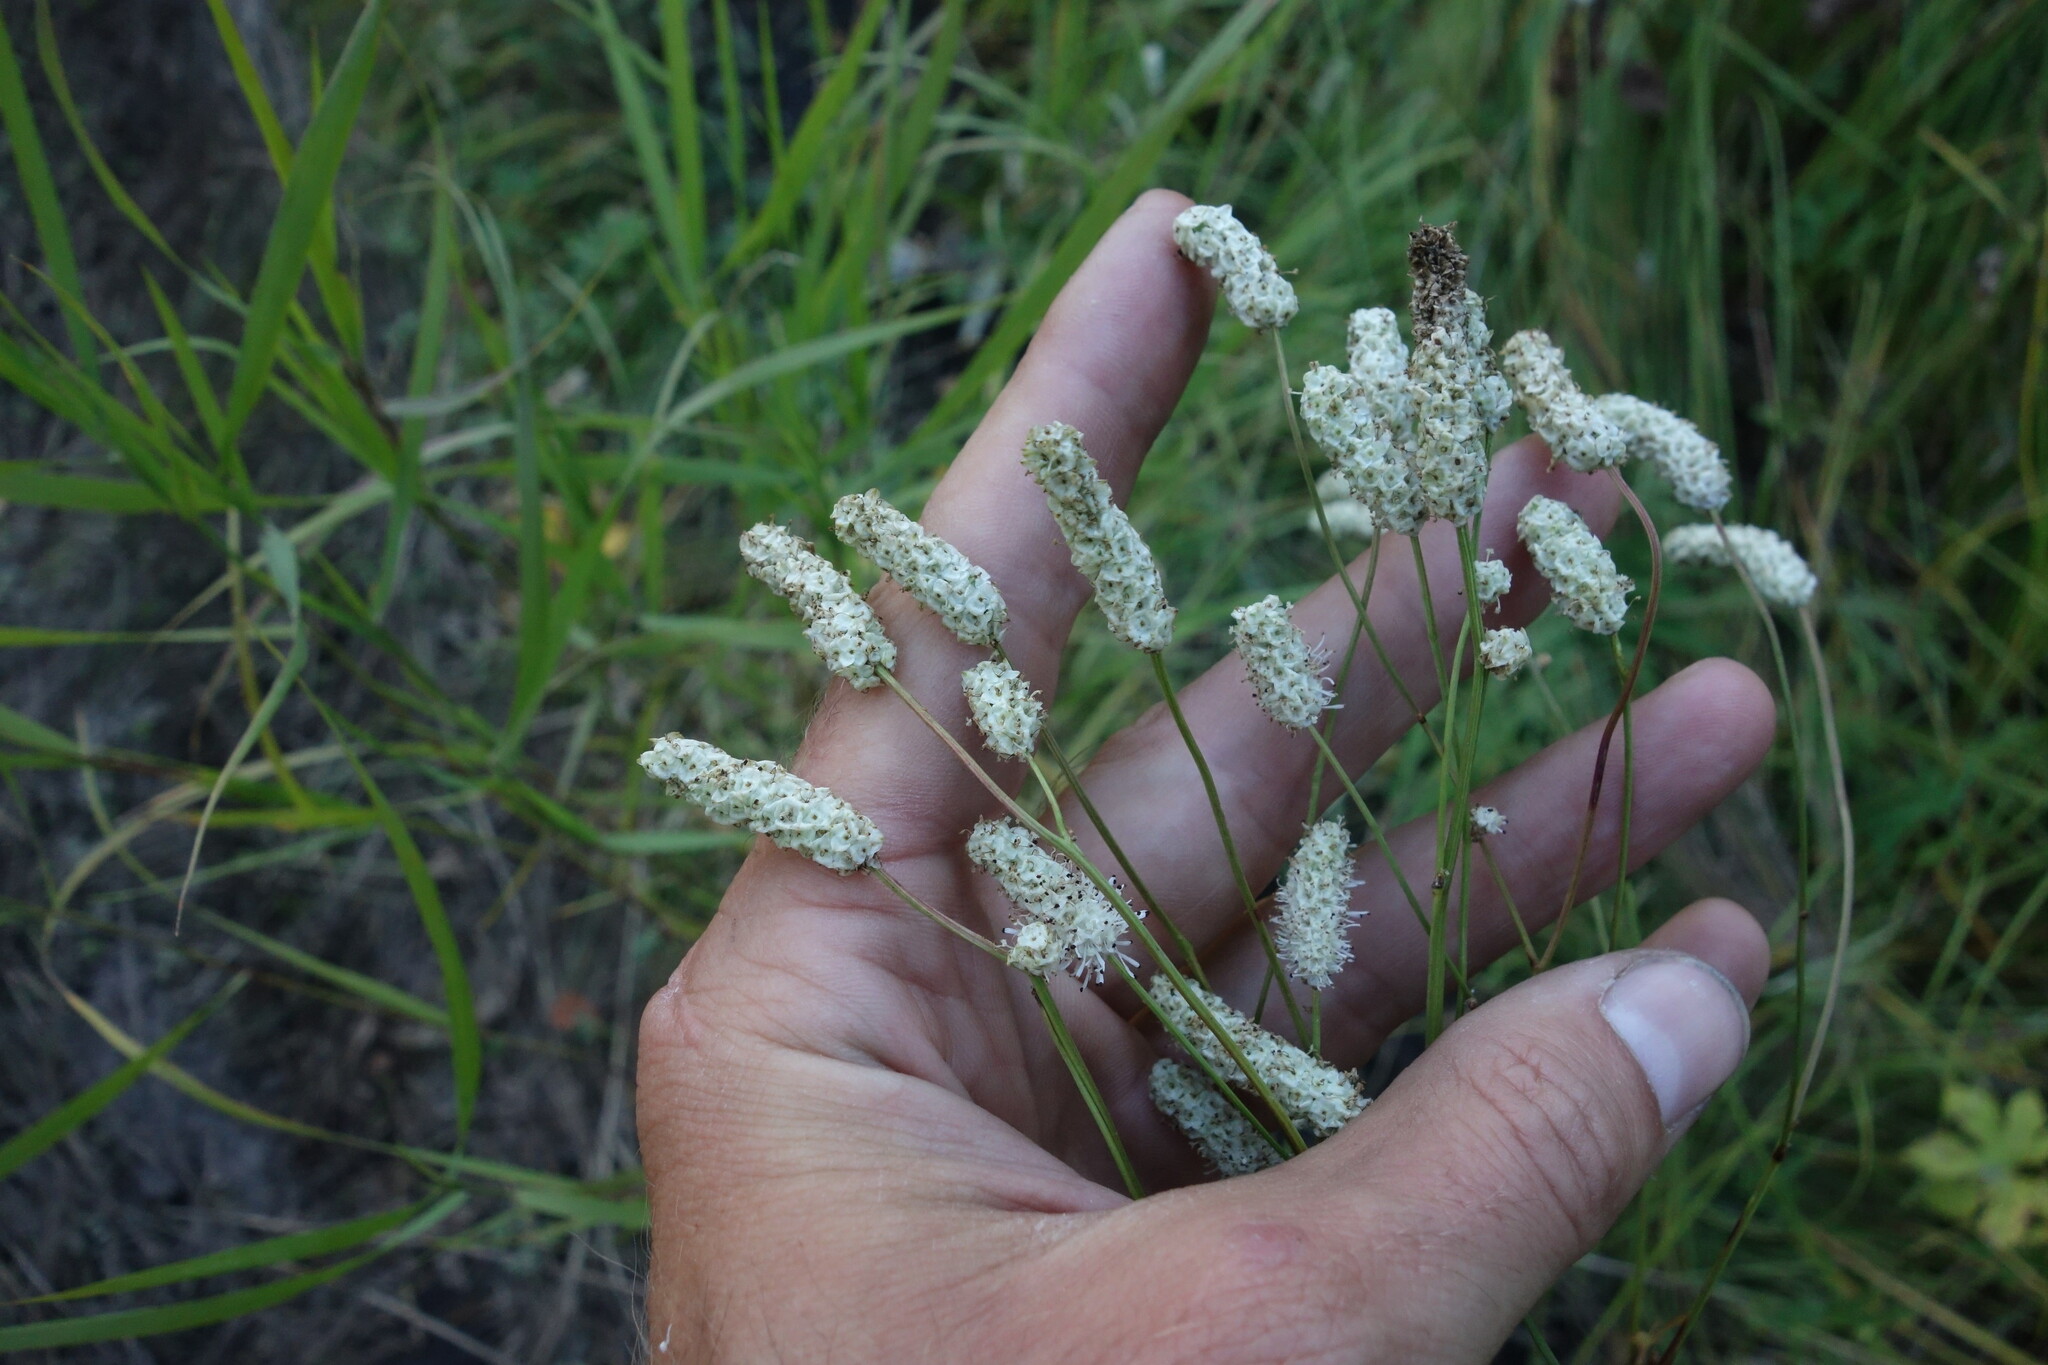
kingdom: Plantae
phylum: Tracheophyta
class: Magnoliopsida
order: Rosales
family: Rosaceae
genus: Poterium
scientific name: Poterium tenuifolium
